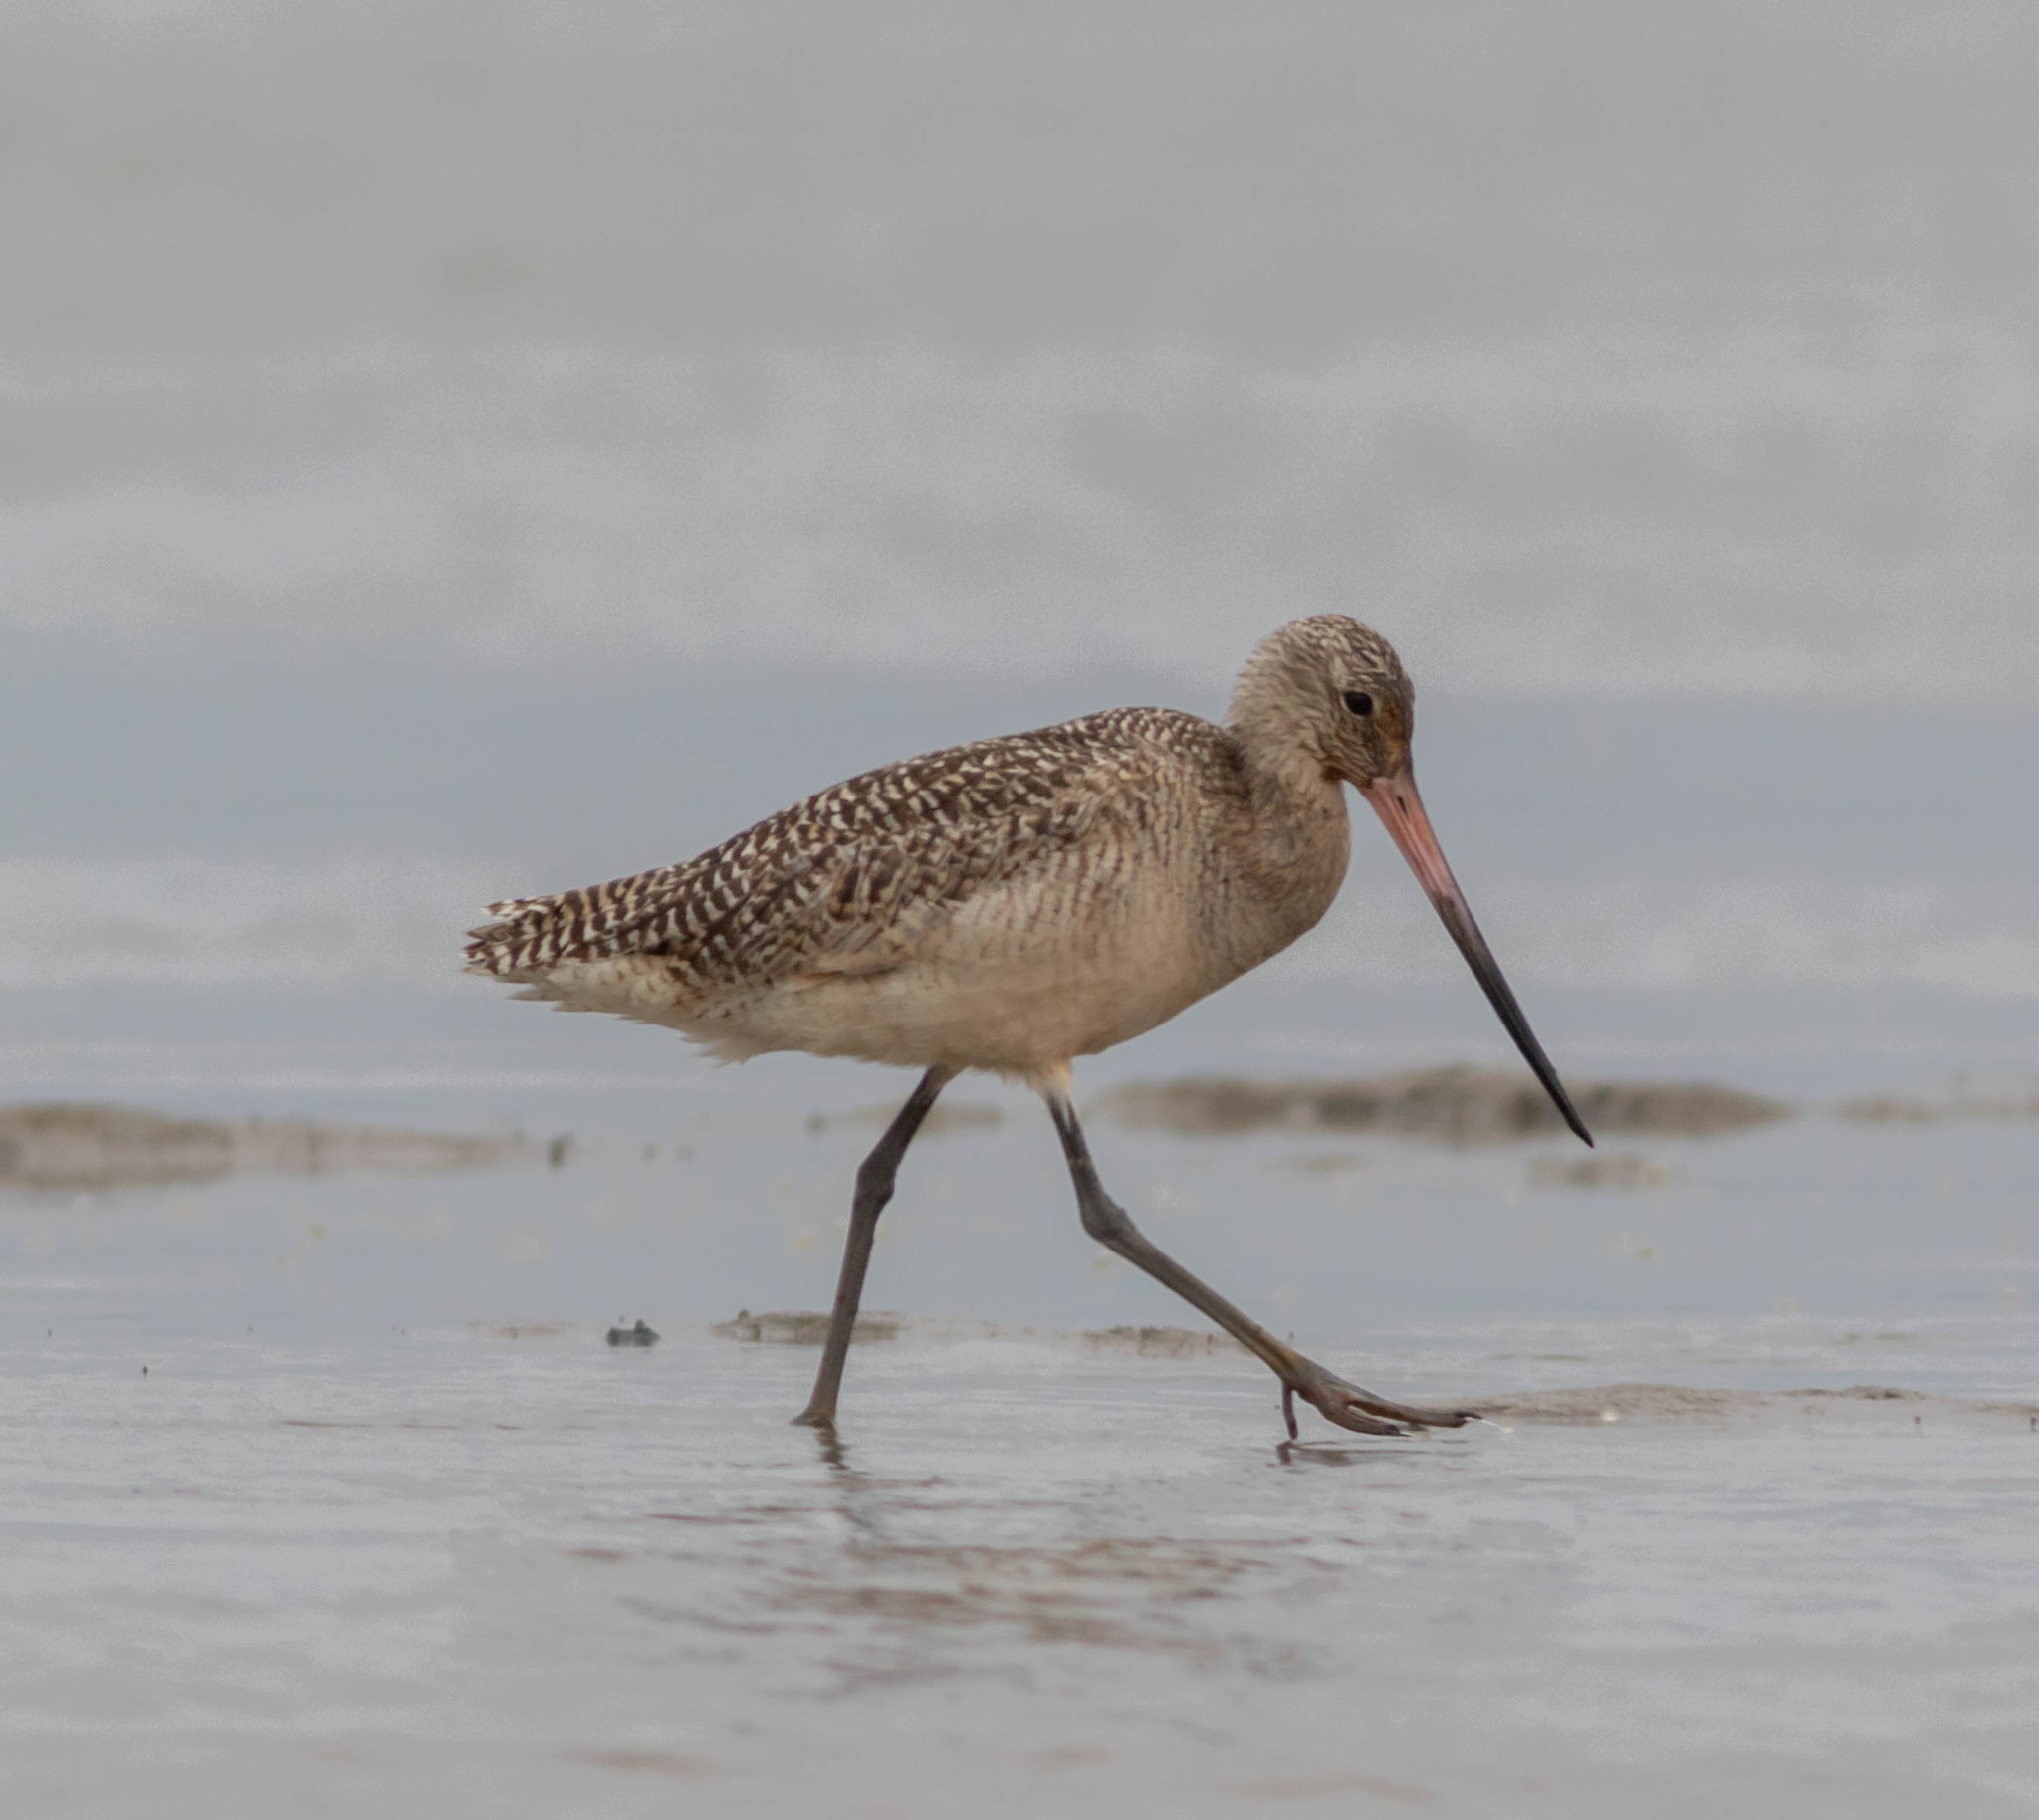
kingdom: Animalia
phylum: Chordata
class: Aves
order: Charadriiformes
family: Scolopacidae
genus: Limosa
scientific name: Limosa fedoa
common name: Marbled godwit
